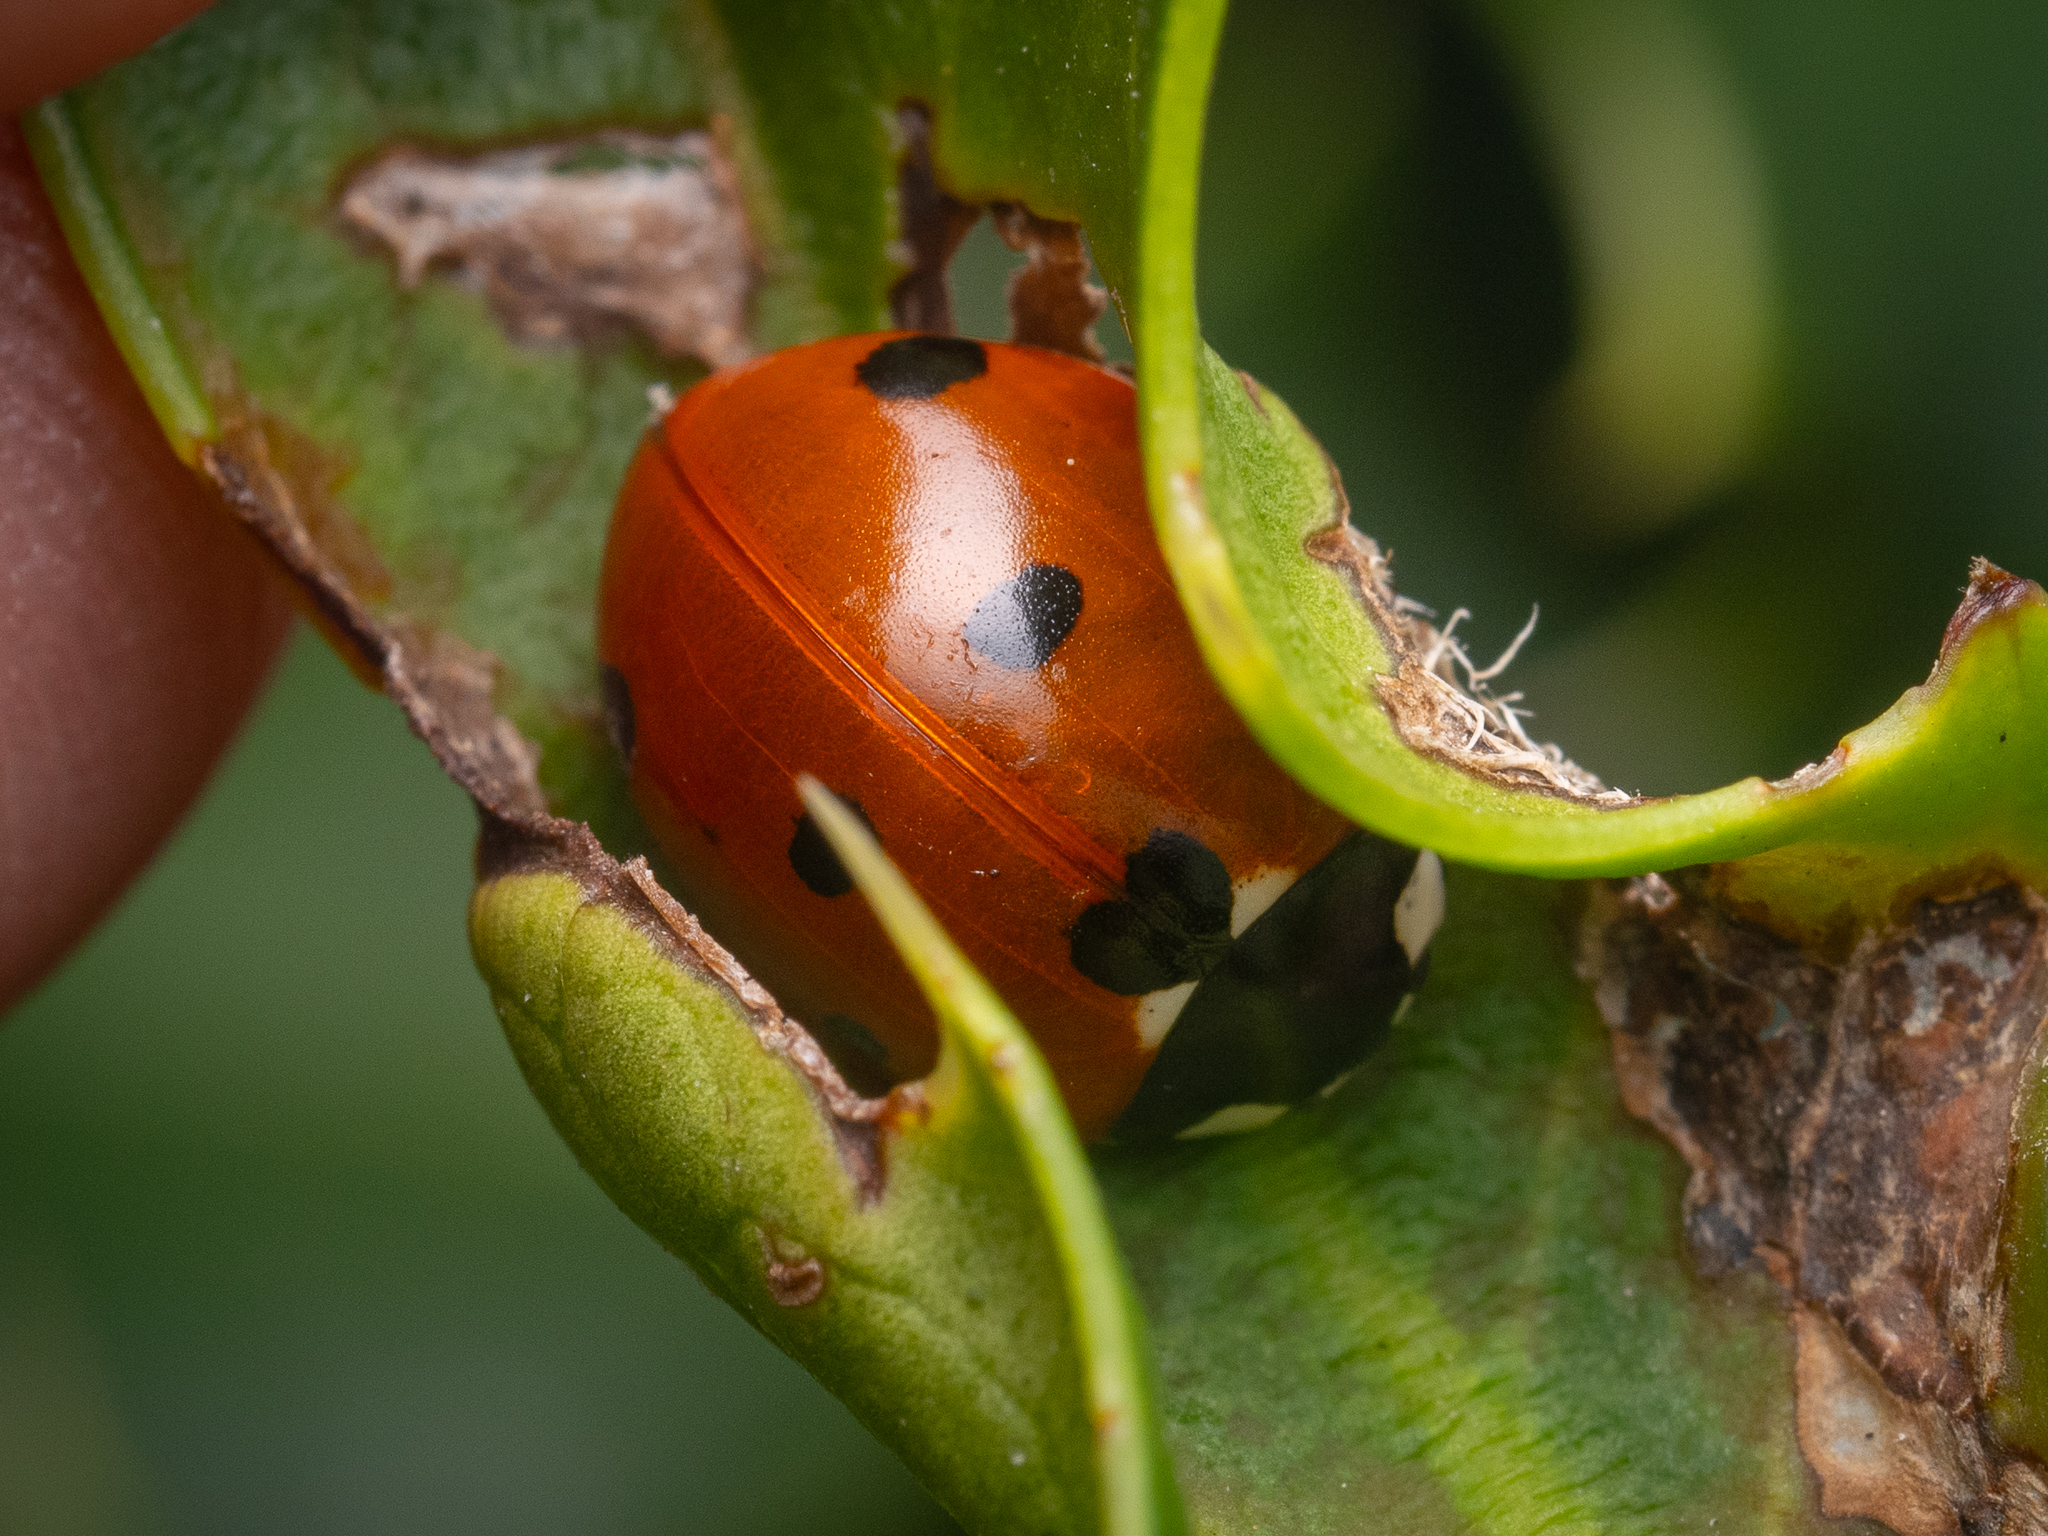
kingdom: Animalia
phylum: Arthropoda
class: Insecta
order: Coleoptera
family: Coccinellidae
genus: Coccinella
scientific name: Coccinella septempunctata
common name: Sevenspotted lady beetle
